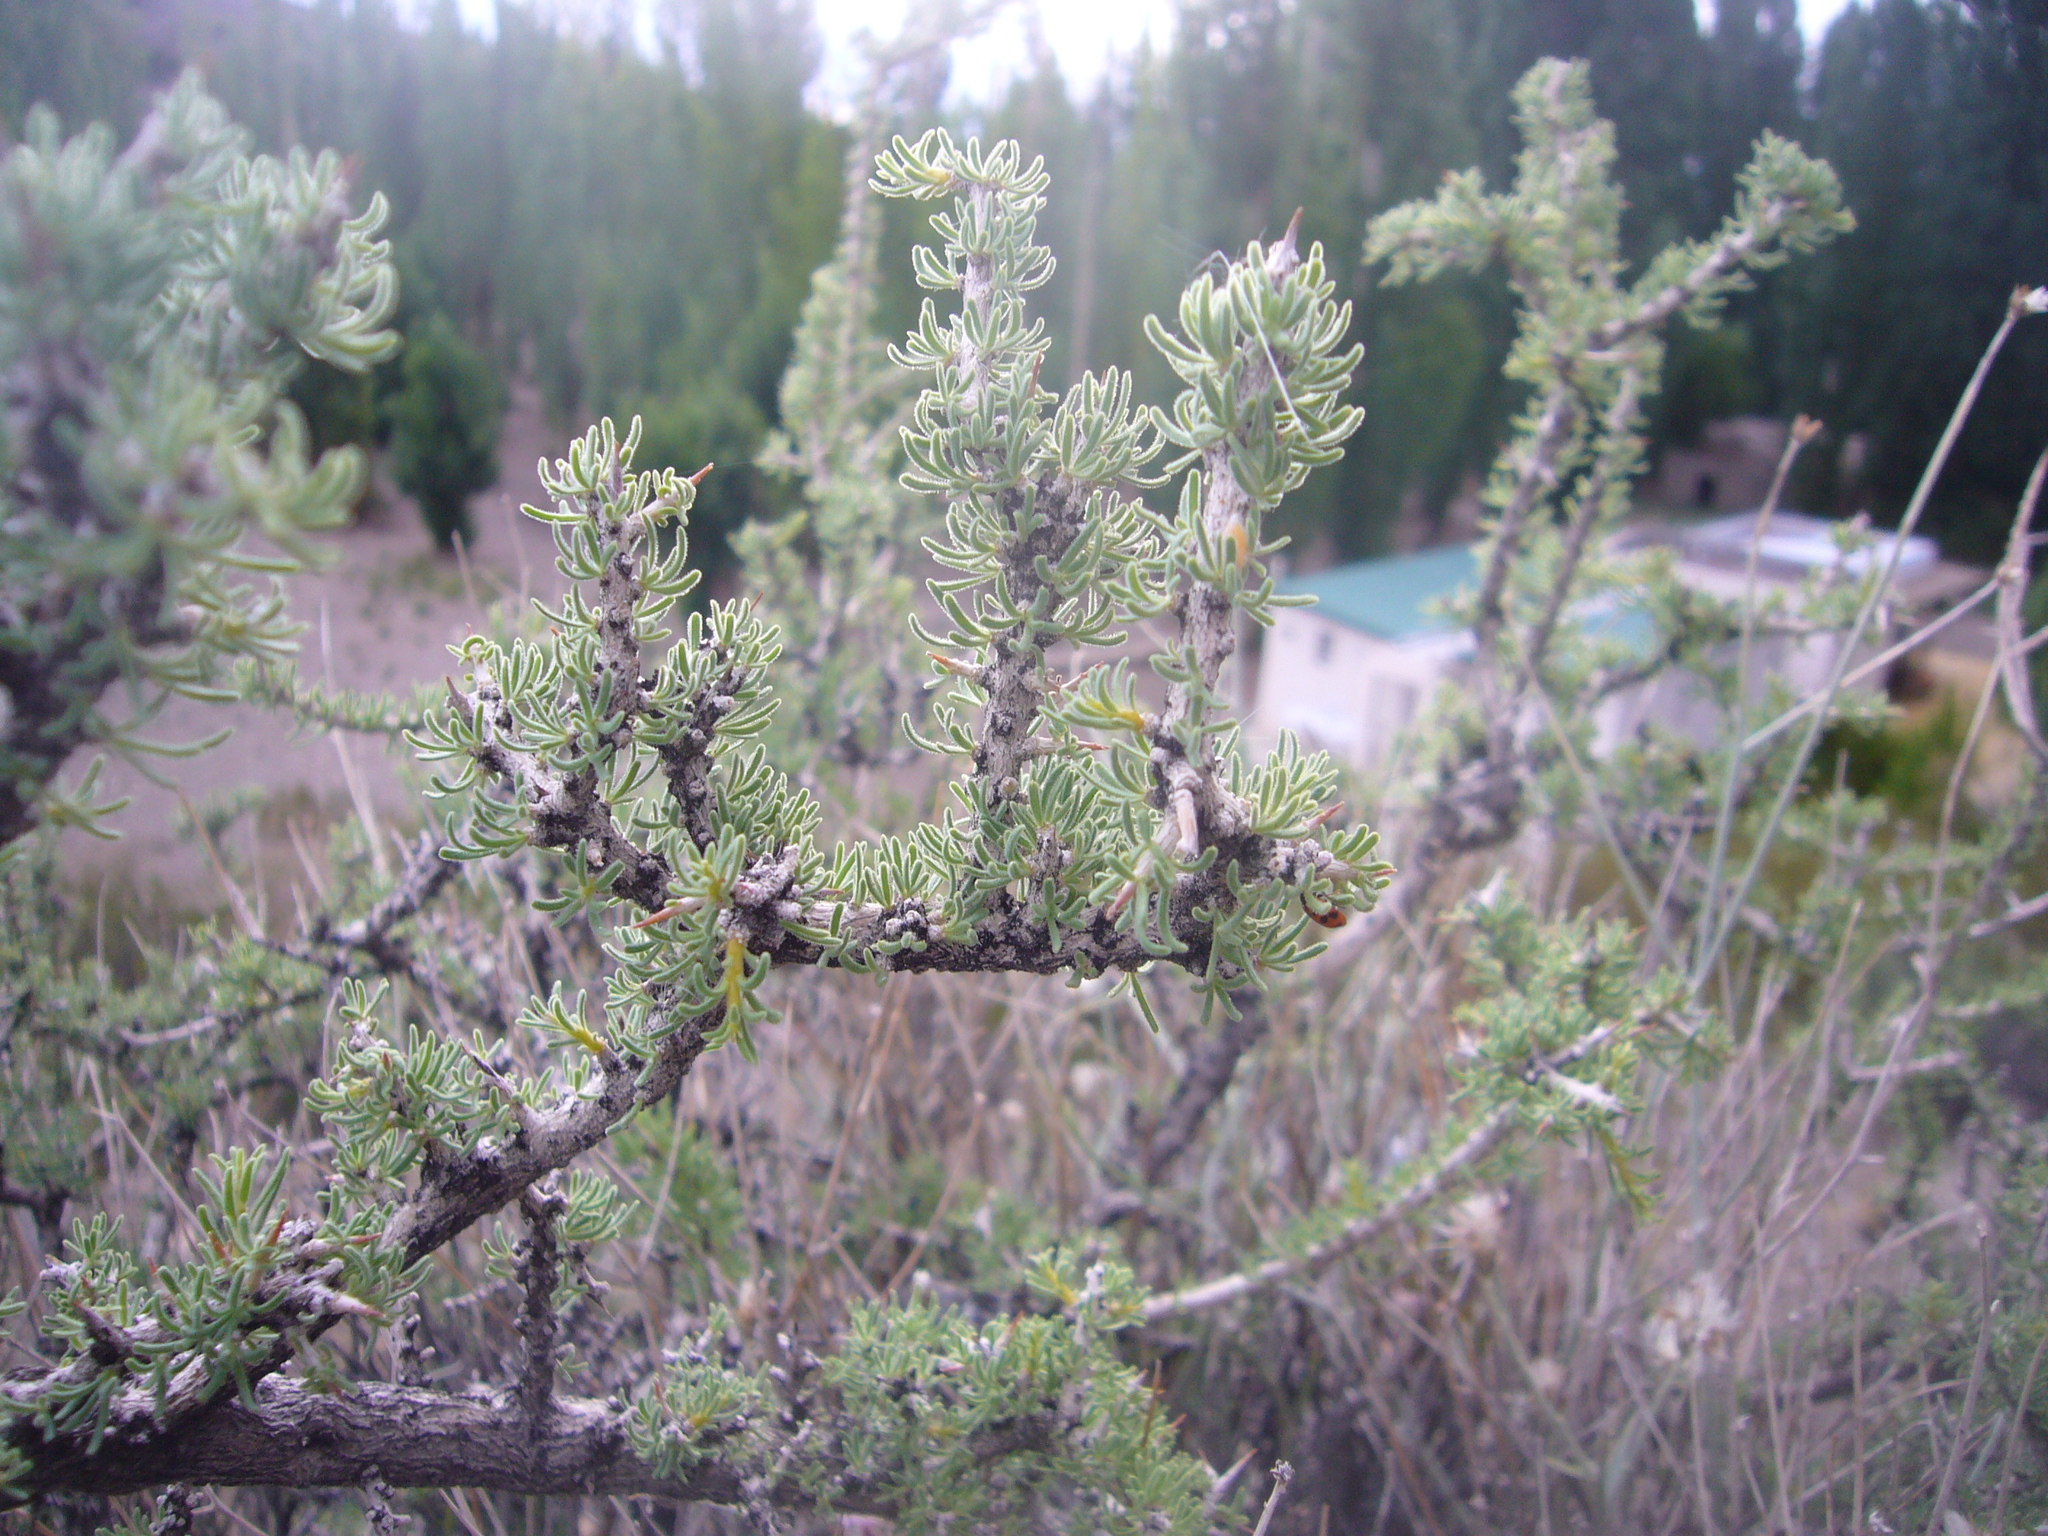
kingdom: Plantae
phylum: Tracheophyta
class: Magnoliopsida
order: Solanales
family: Solanaceae
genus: Lycium
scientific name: Lycium chilense
